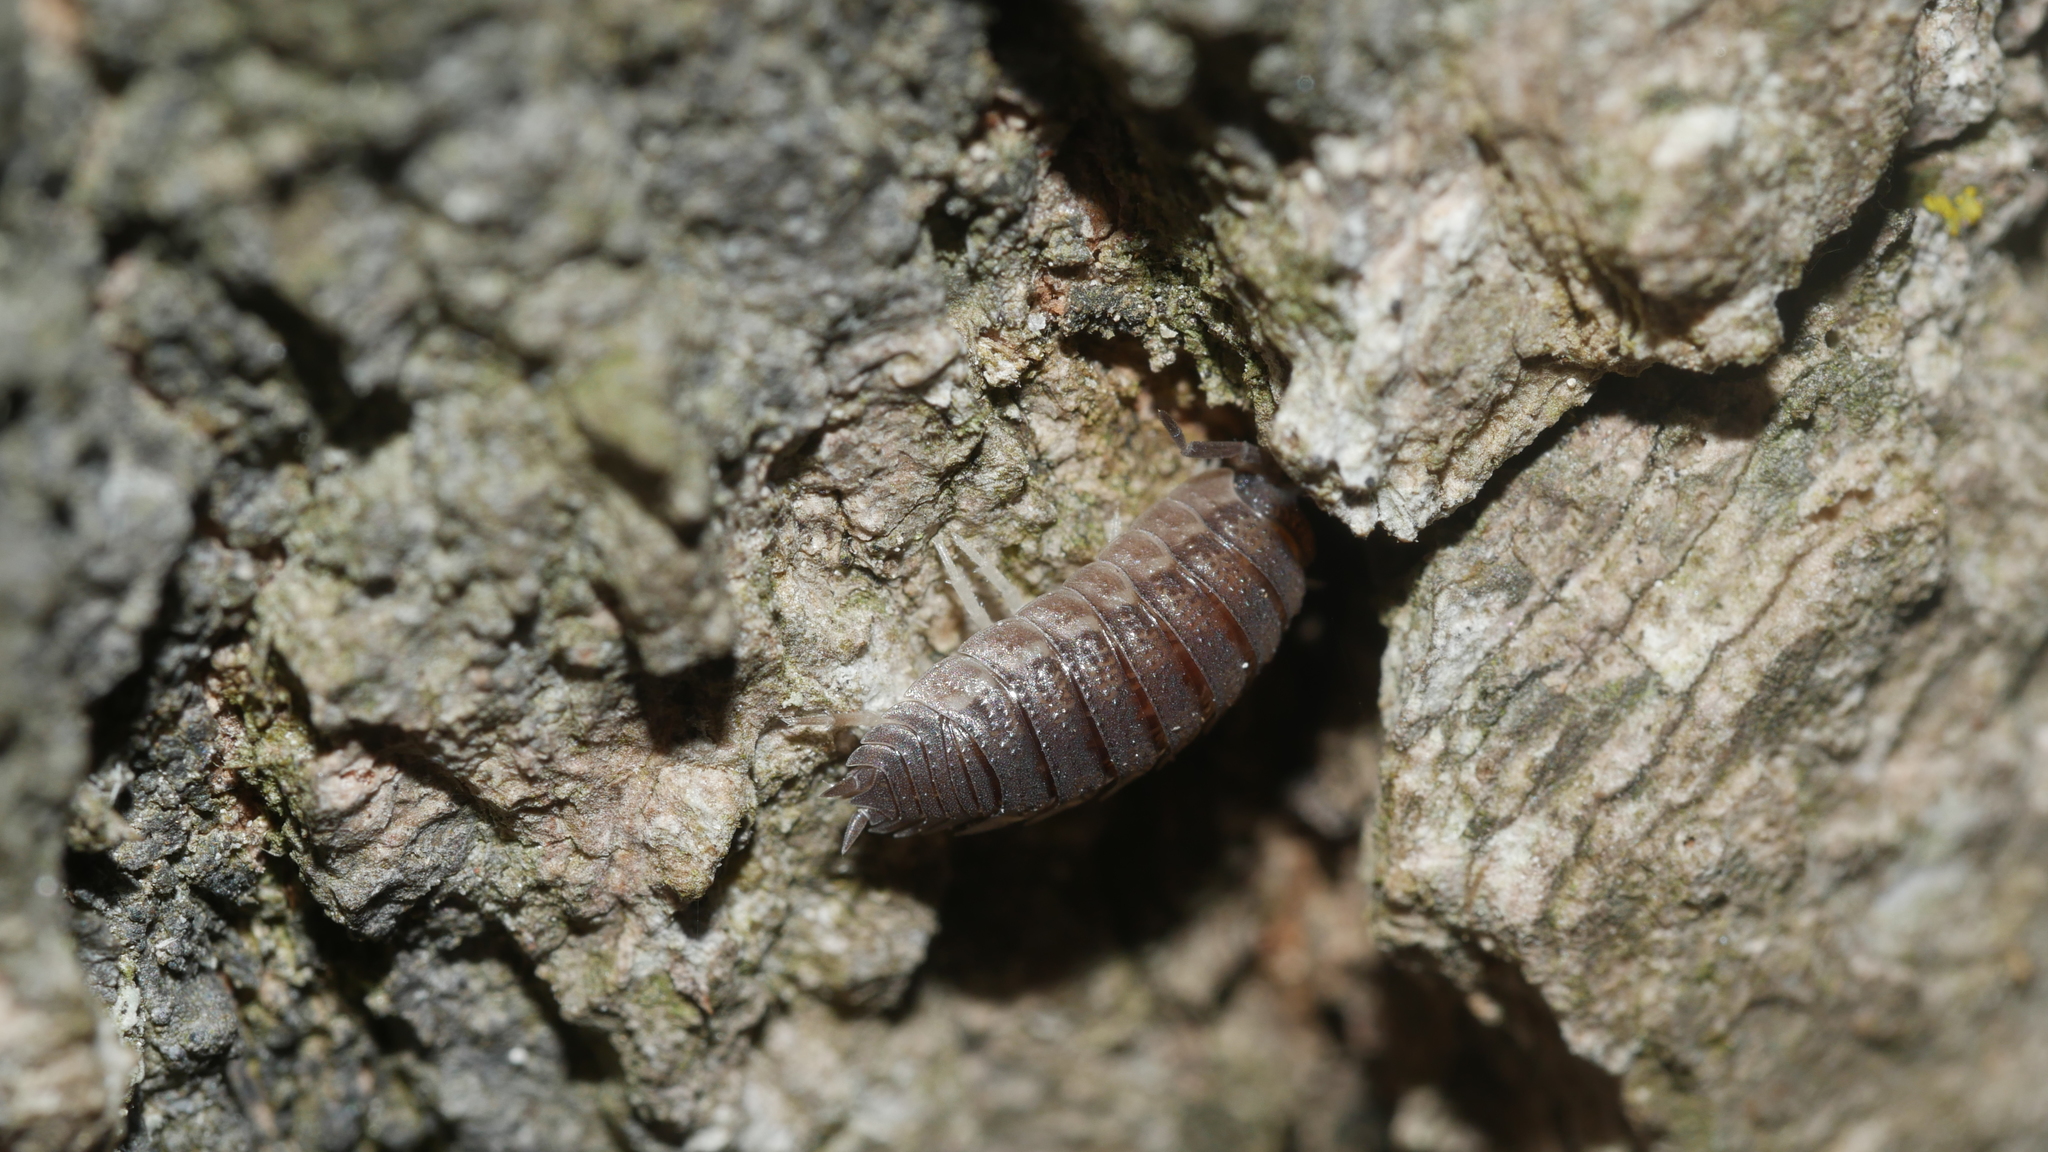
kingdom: Animalia
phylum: Arthropoda
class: Malacostraca
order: Isopoda
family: Porcellionidae
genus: Porcellio
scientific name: Porcellio scaber
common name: Common rough woodlouse
